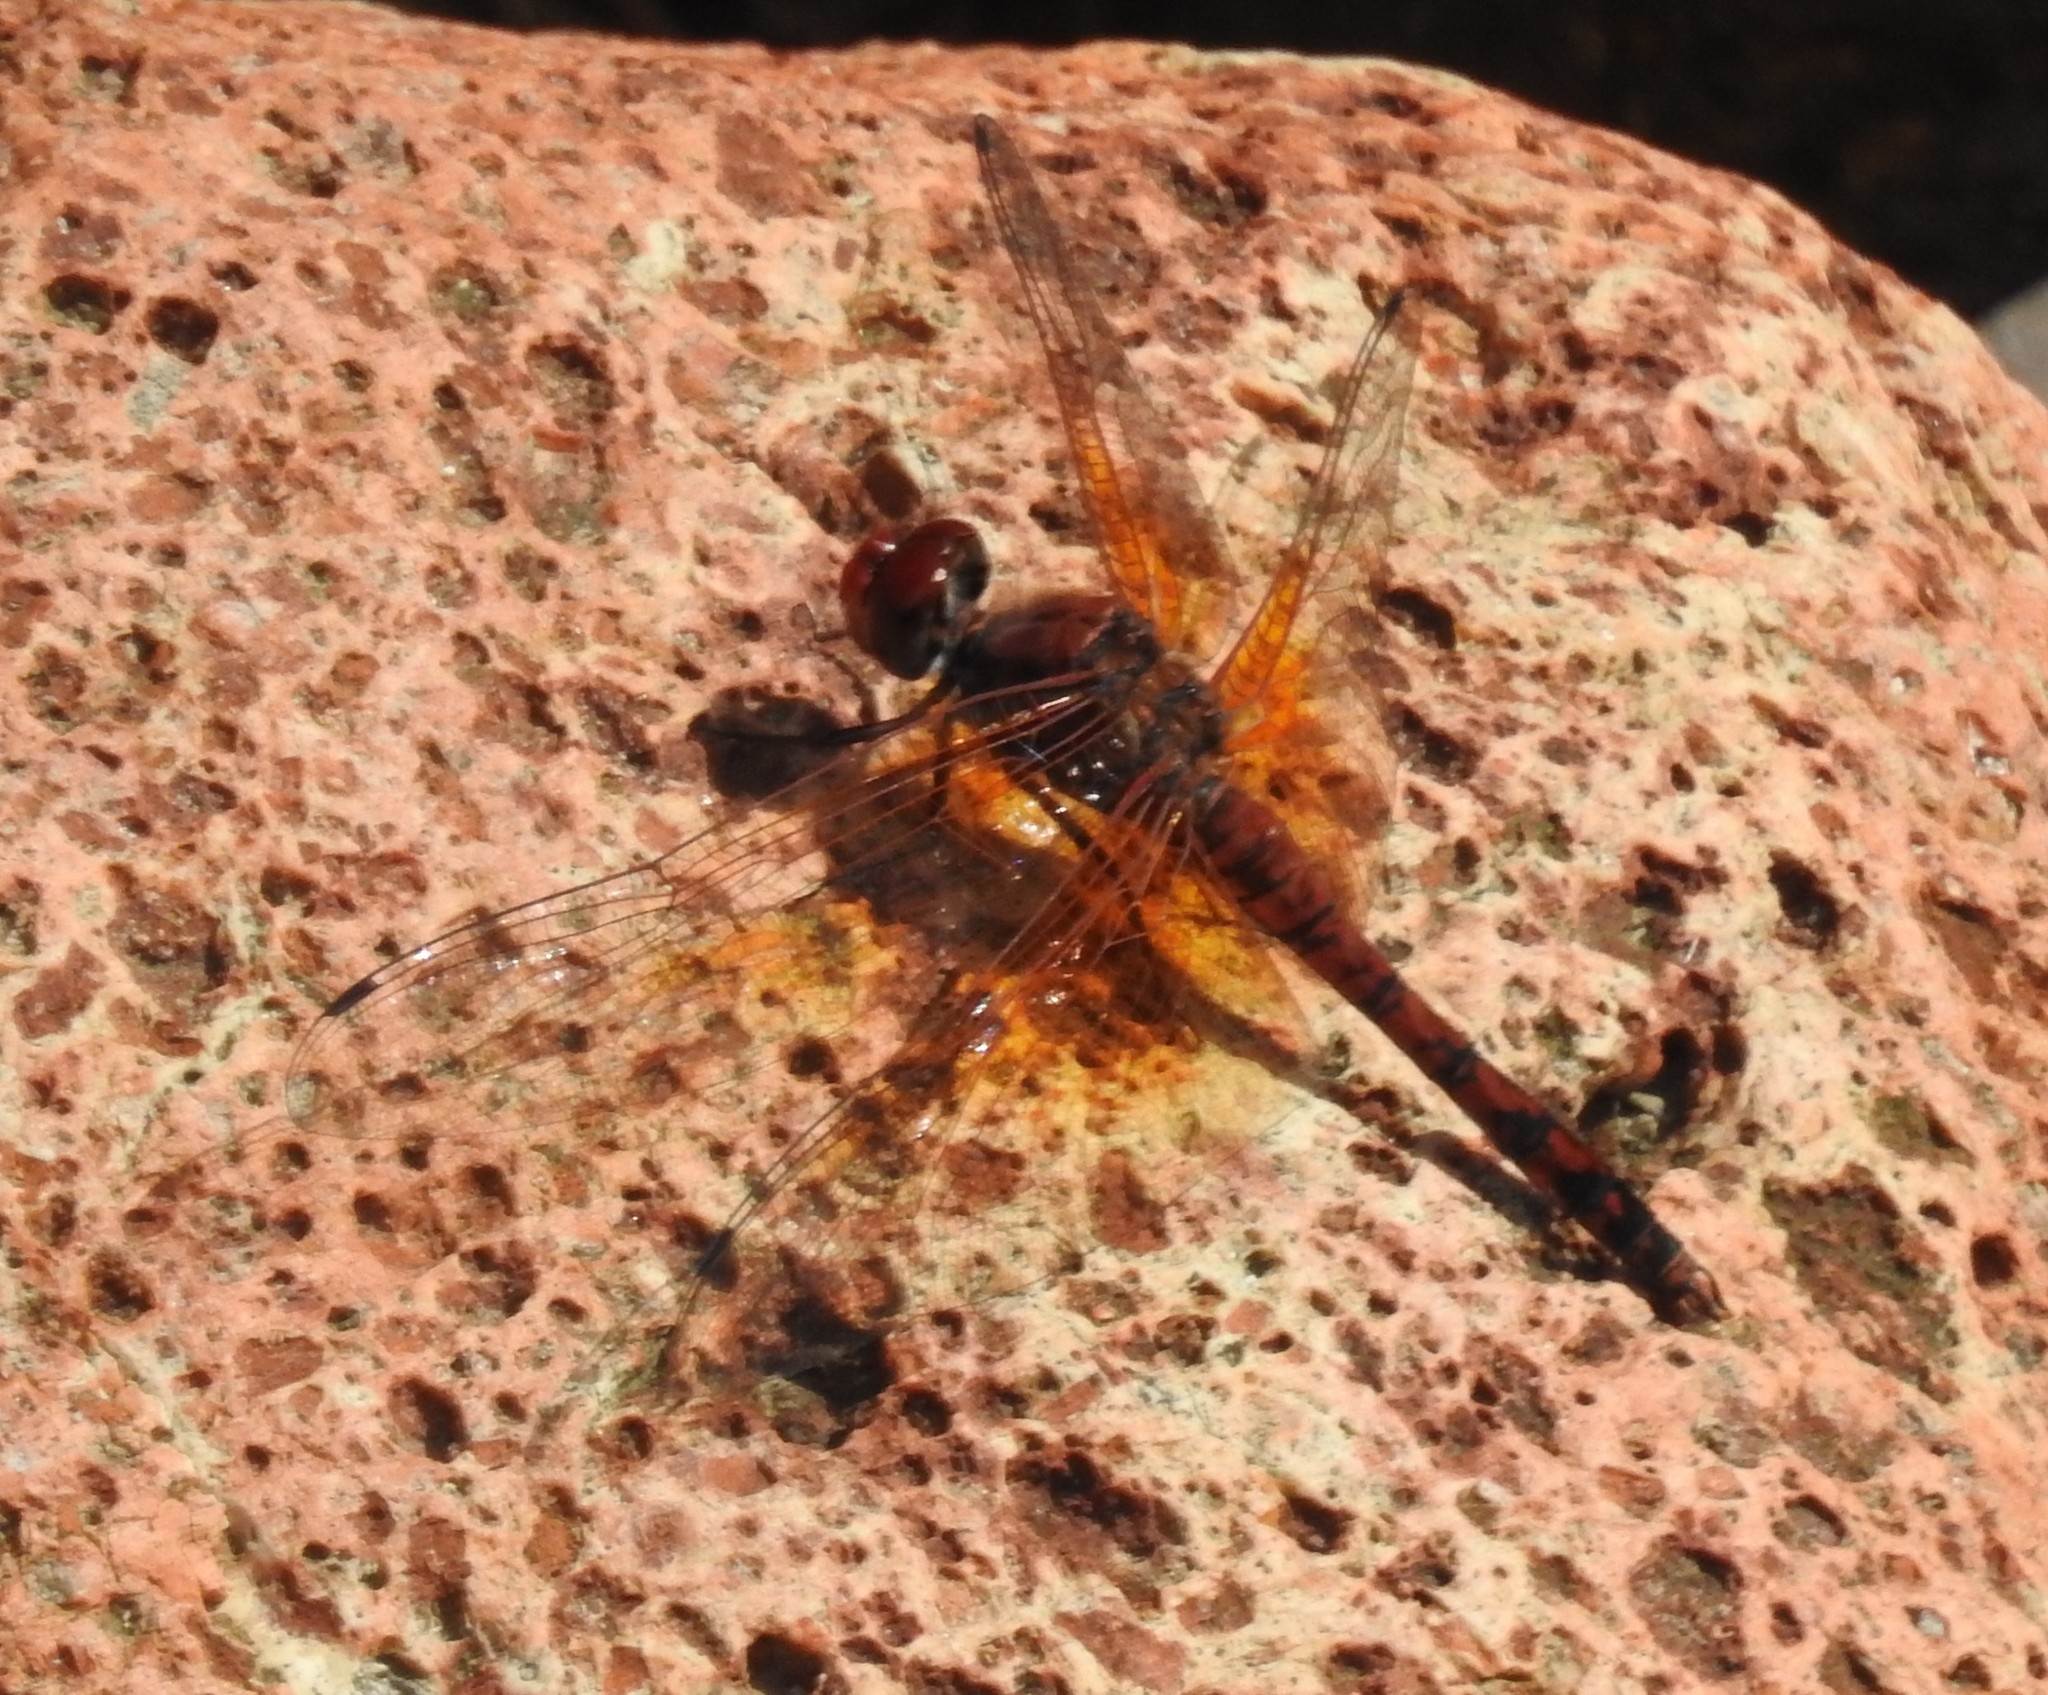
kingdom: Animalia
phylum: Arthropoda
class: Insecta
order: Odonata
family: Libellulidae
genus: Paltothemis
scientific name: Paltothemis lineatipes
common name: Red rock skimmer
